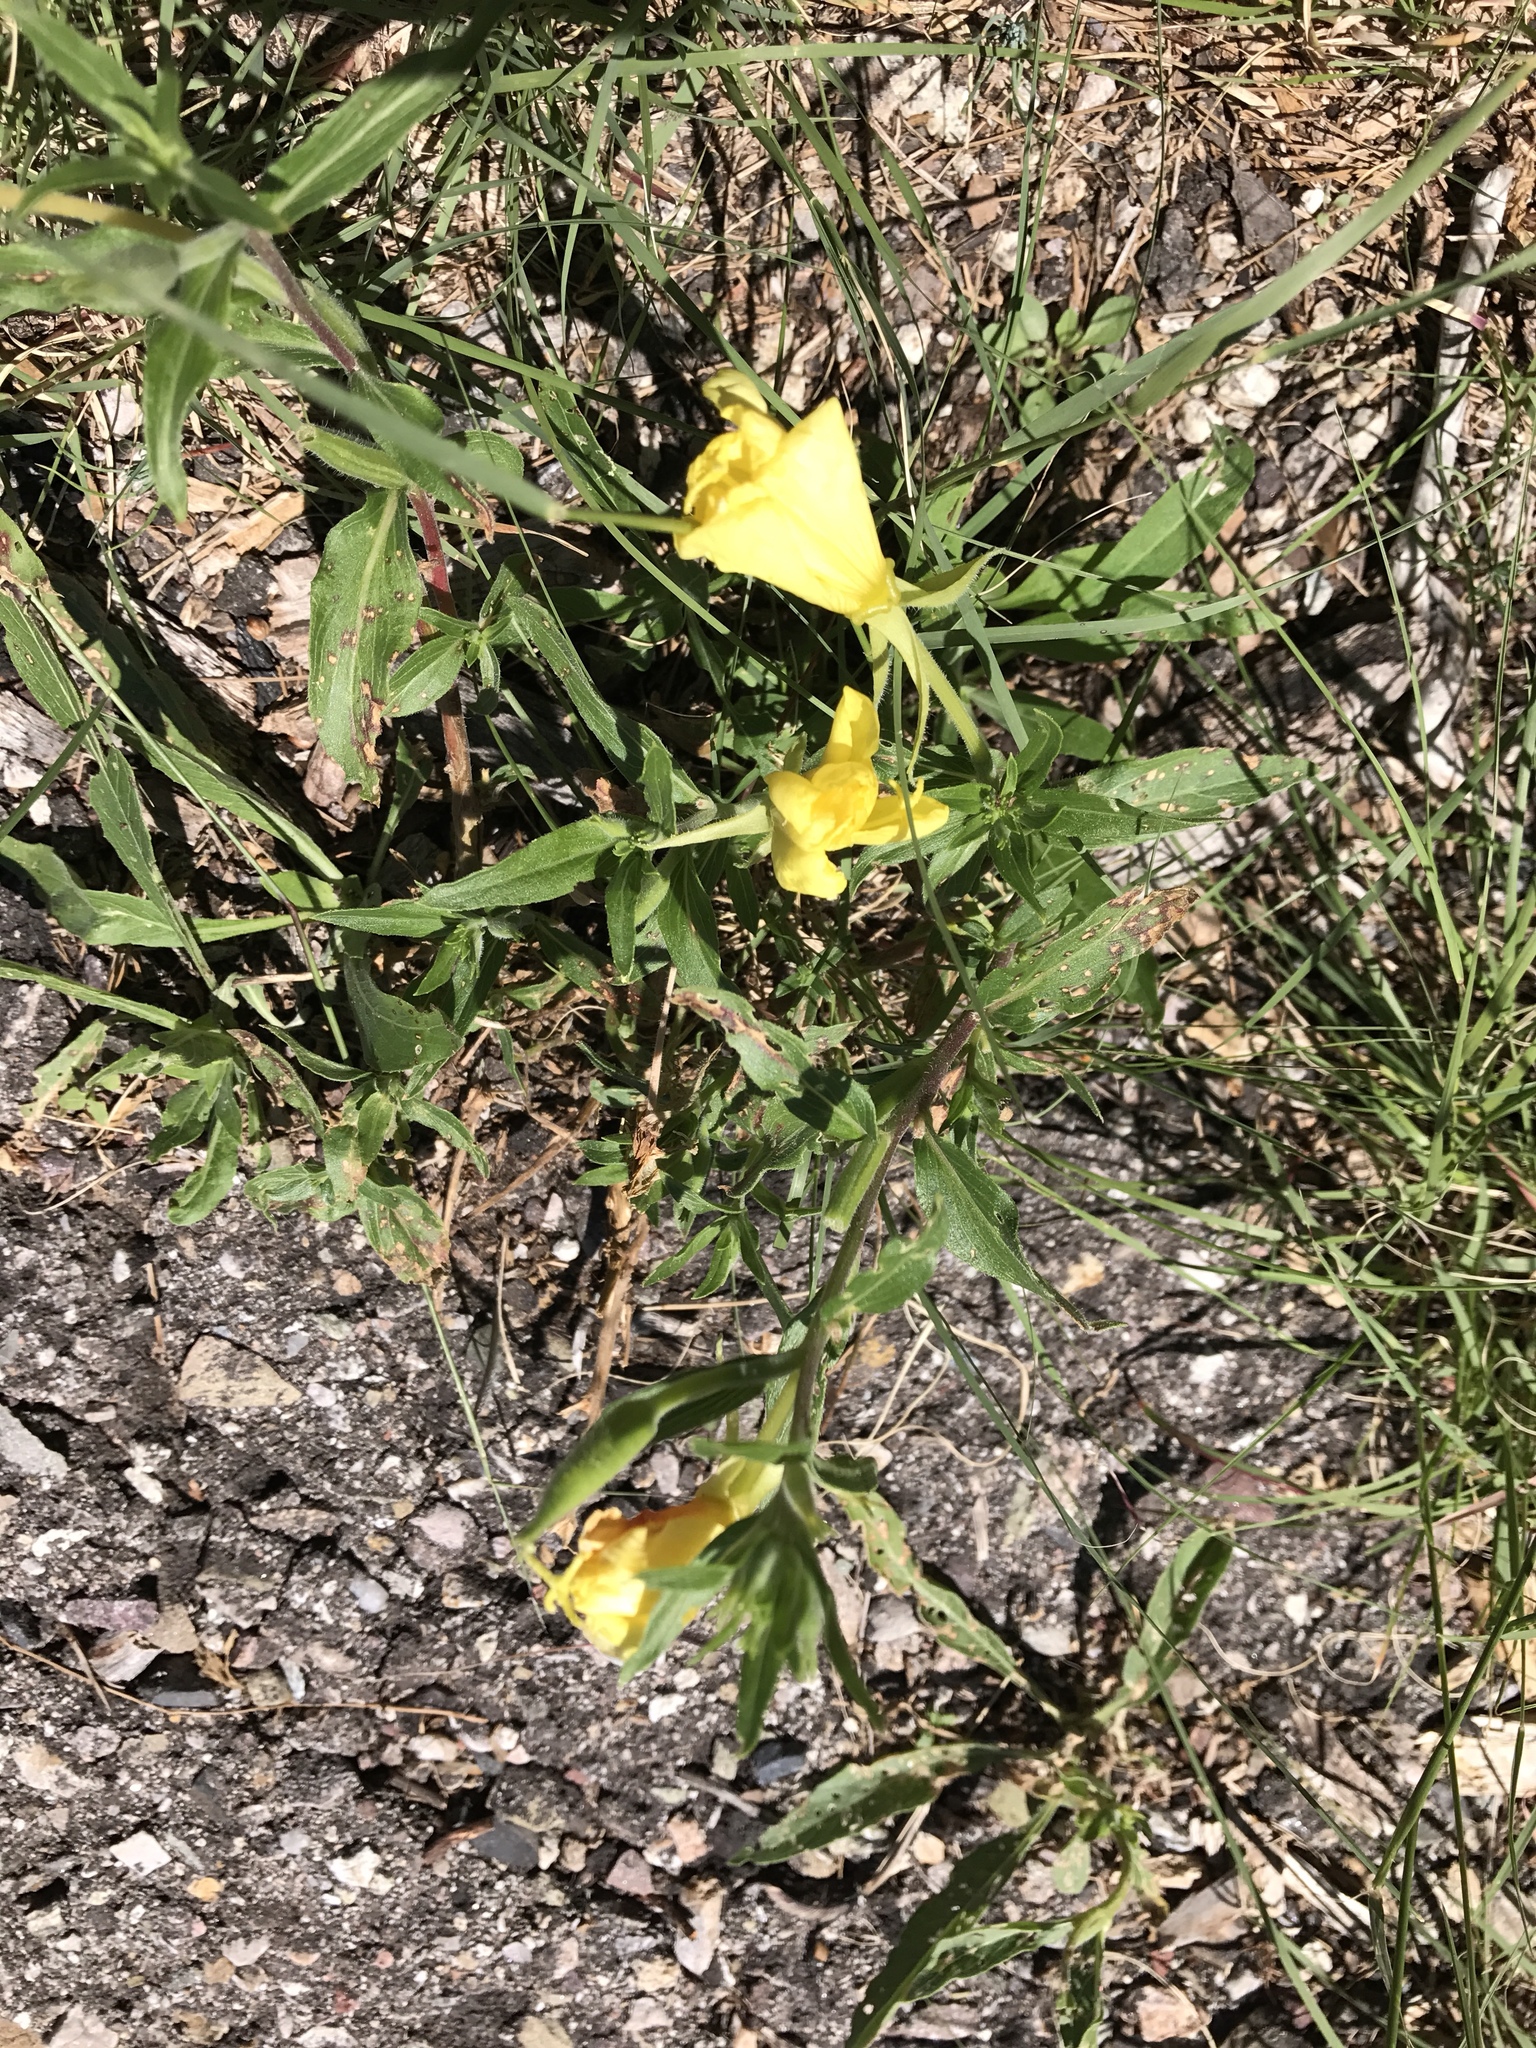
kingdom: Plantae
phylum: Tracheophyta
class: Magnoliopsida
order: Myrtales
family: Onagraceae
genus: Oenothera
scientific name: Oenothera elata
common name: Hooker's evening-primrose
